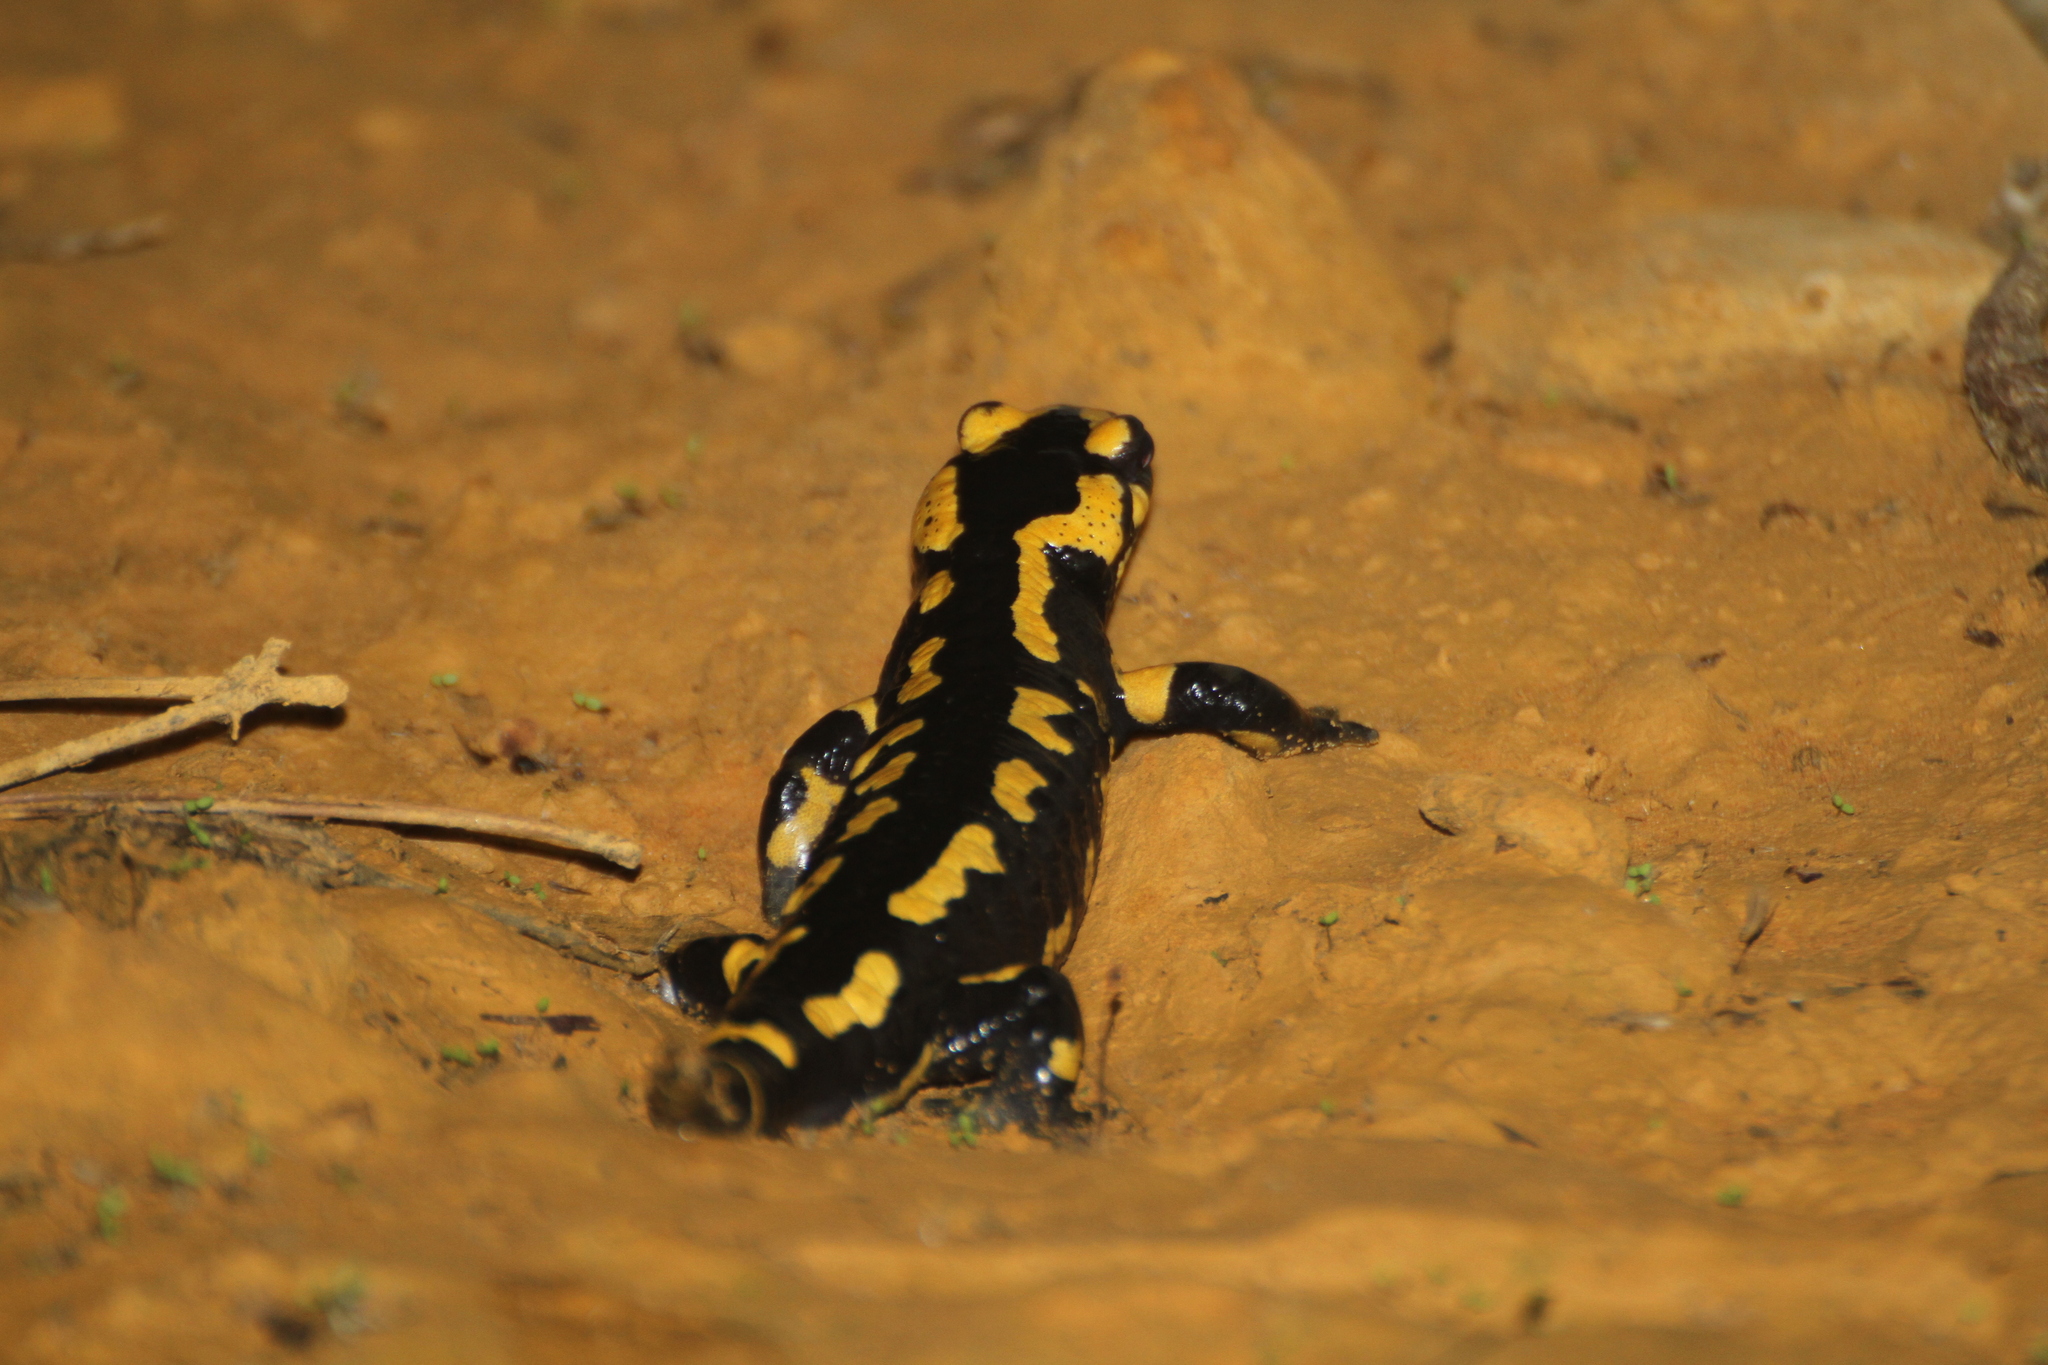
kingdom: Animalia
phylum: Chordata
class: Amphibia
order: Caudata
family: Salamandridae
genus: Salamandra
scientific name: Salamandra salamandra
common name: Fire salamander
